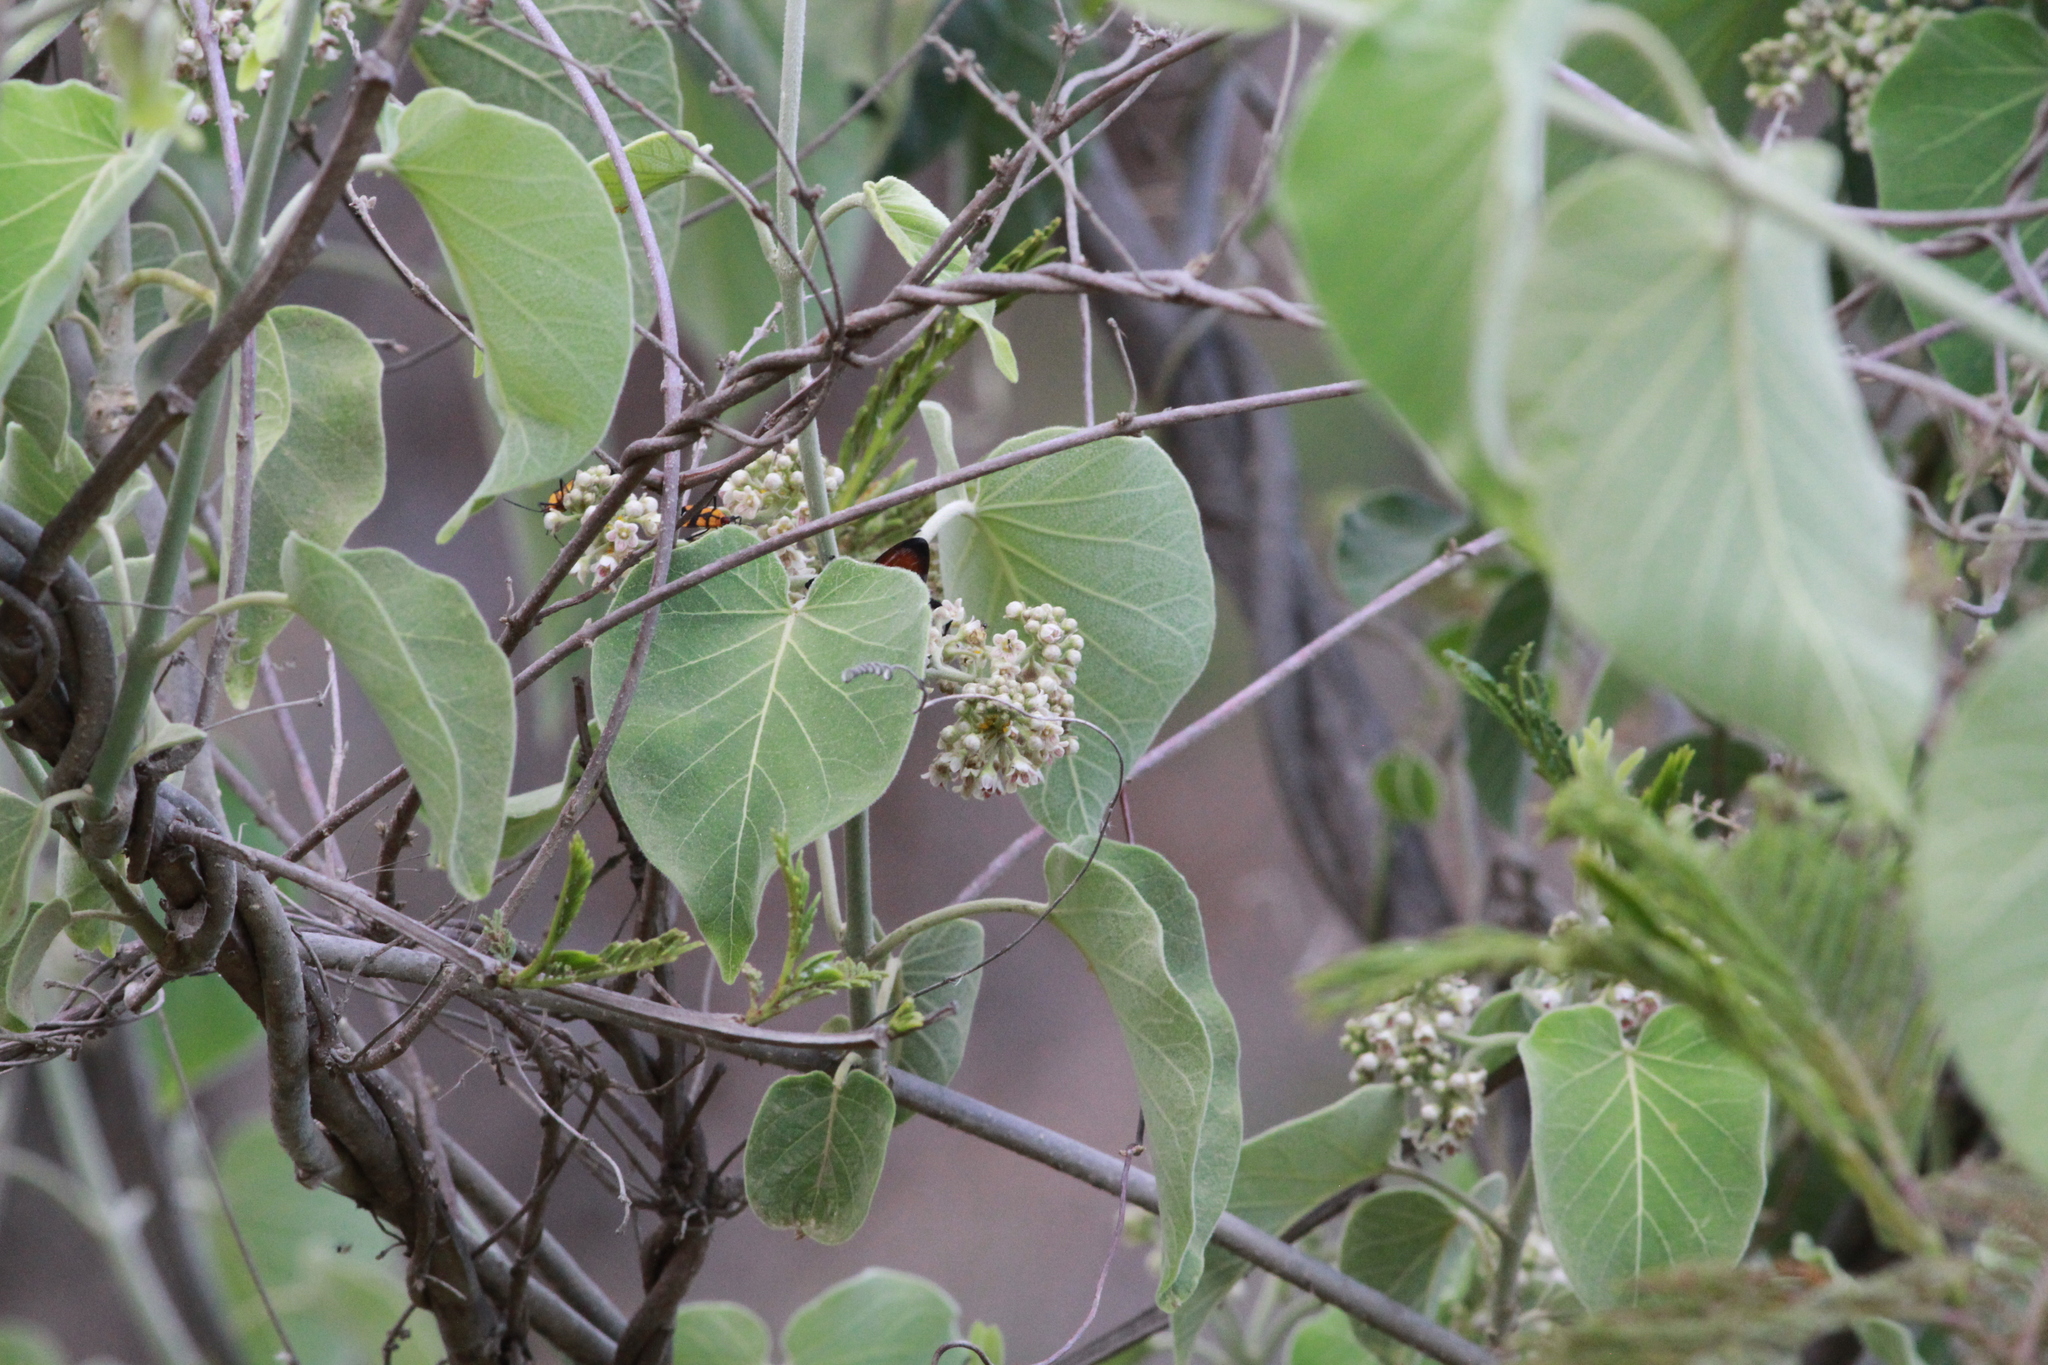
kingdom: Plantae
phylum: Tracheophyta
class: Magnoliopsida
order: Gentianales
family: Apocynaceae
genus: Ruehssia
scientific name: Ruehssia mexicana
